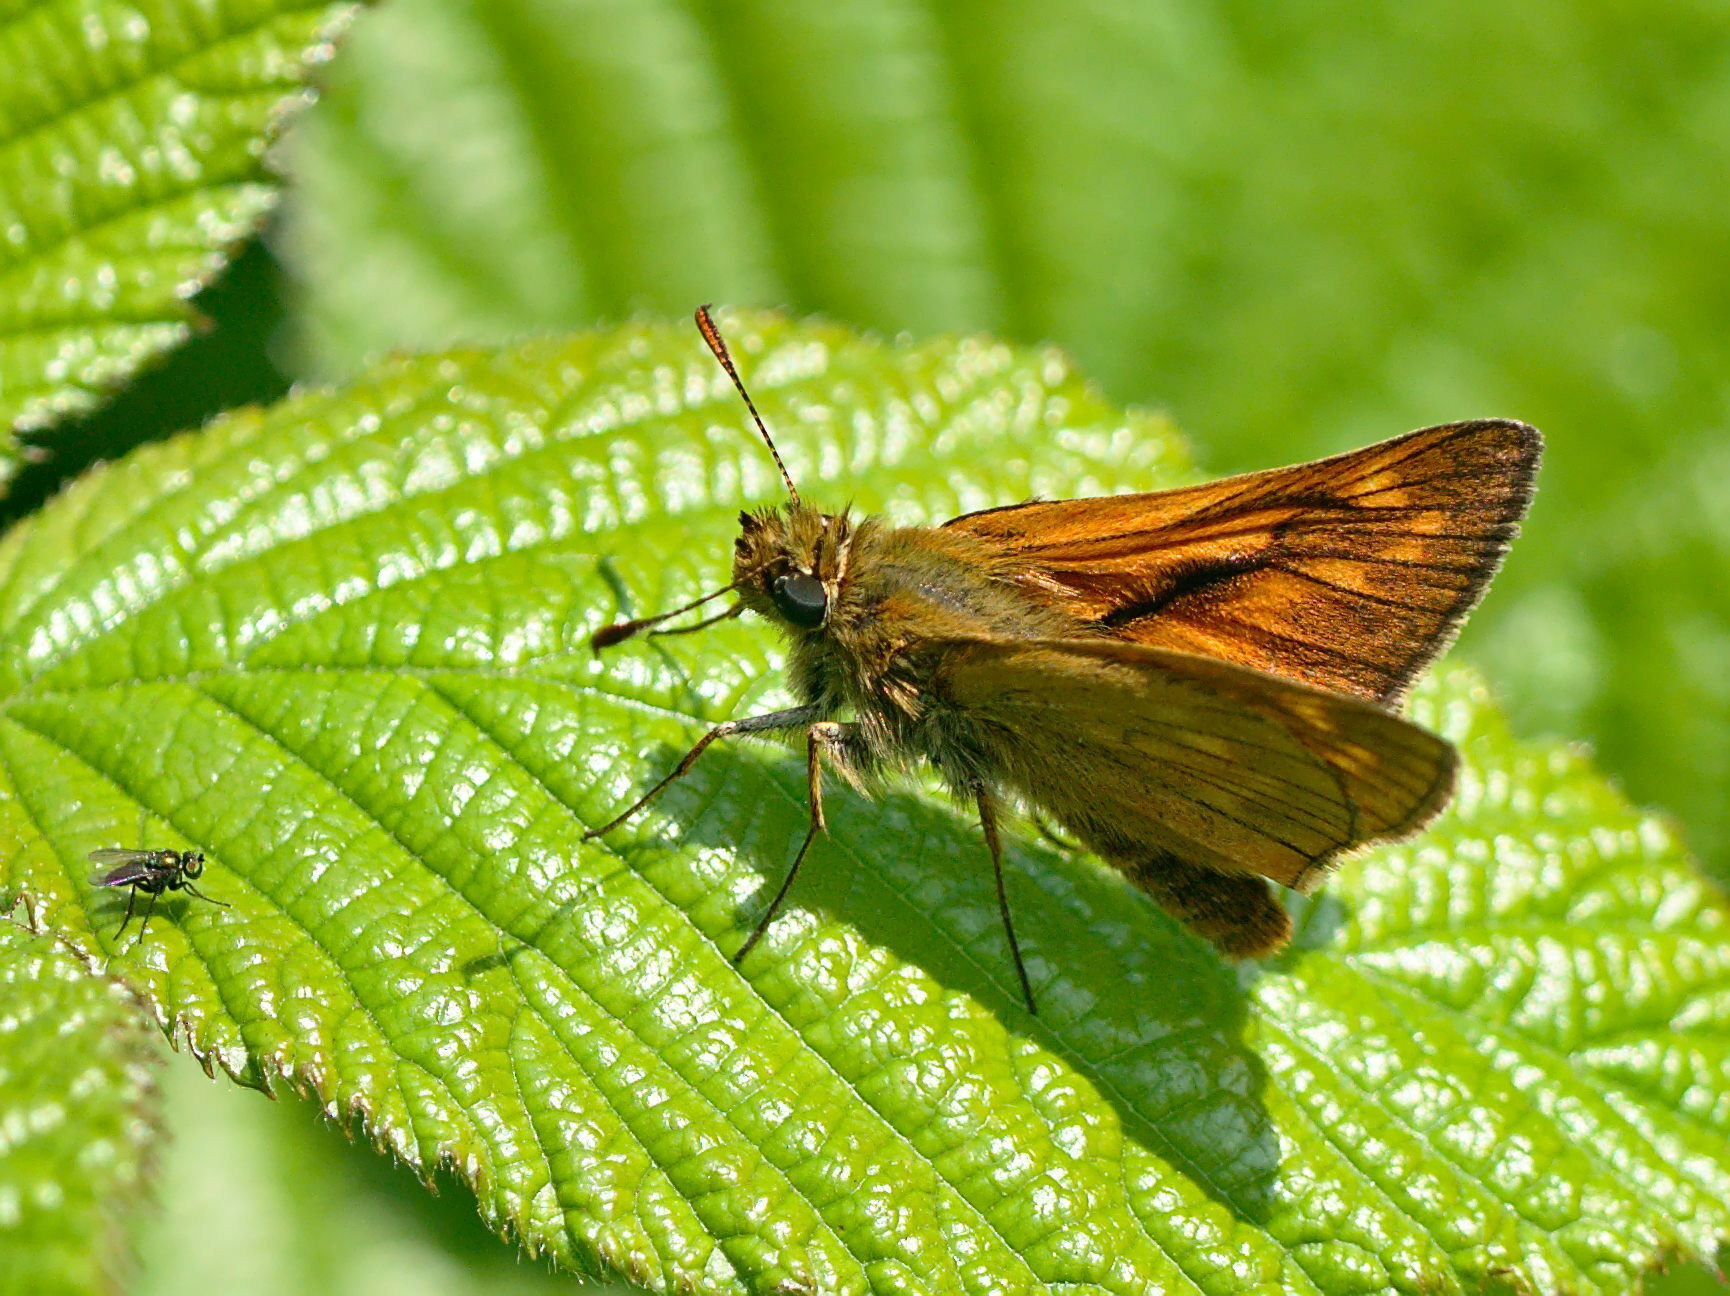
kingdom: Animalia
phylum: Arthropoda
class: Insecta
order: Lepidoptera
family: Hesperiidae
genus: Ochlodes
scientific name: Ochlodes venata
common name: Large skipper
